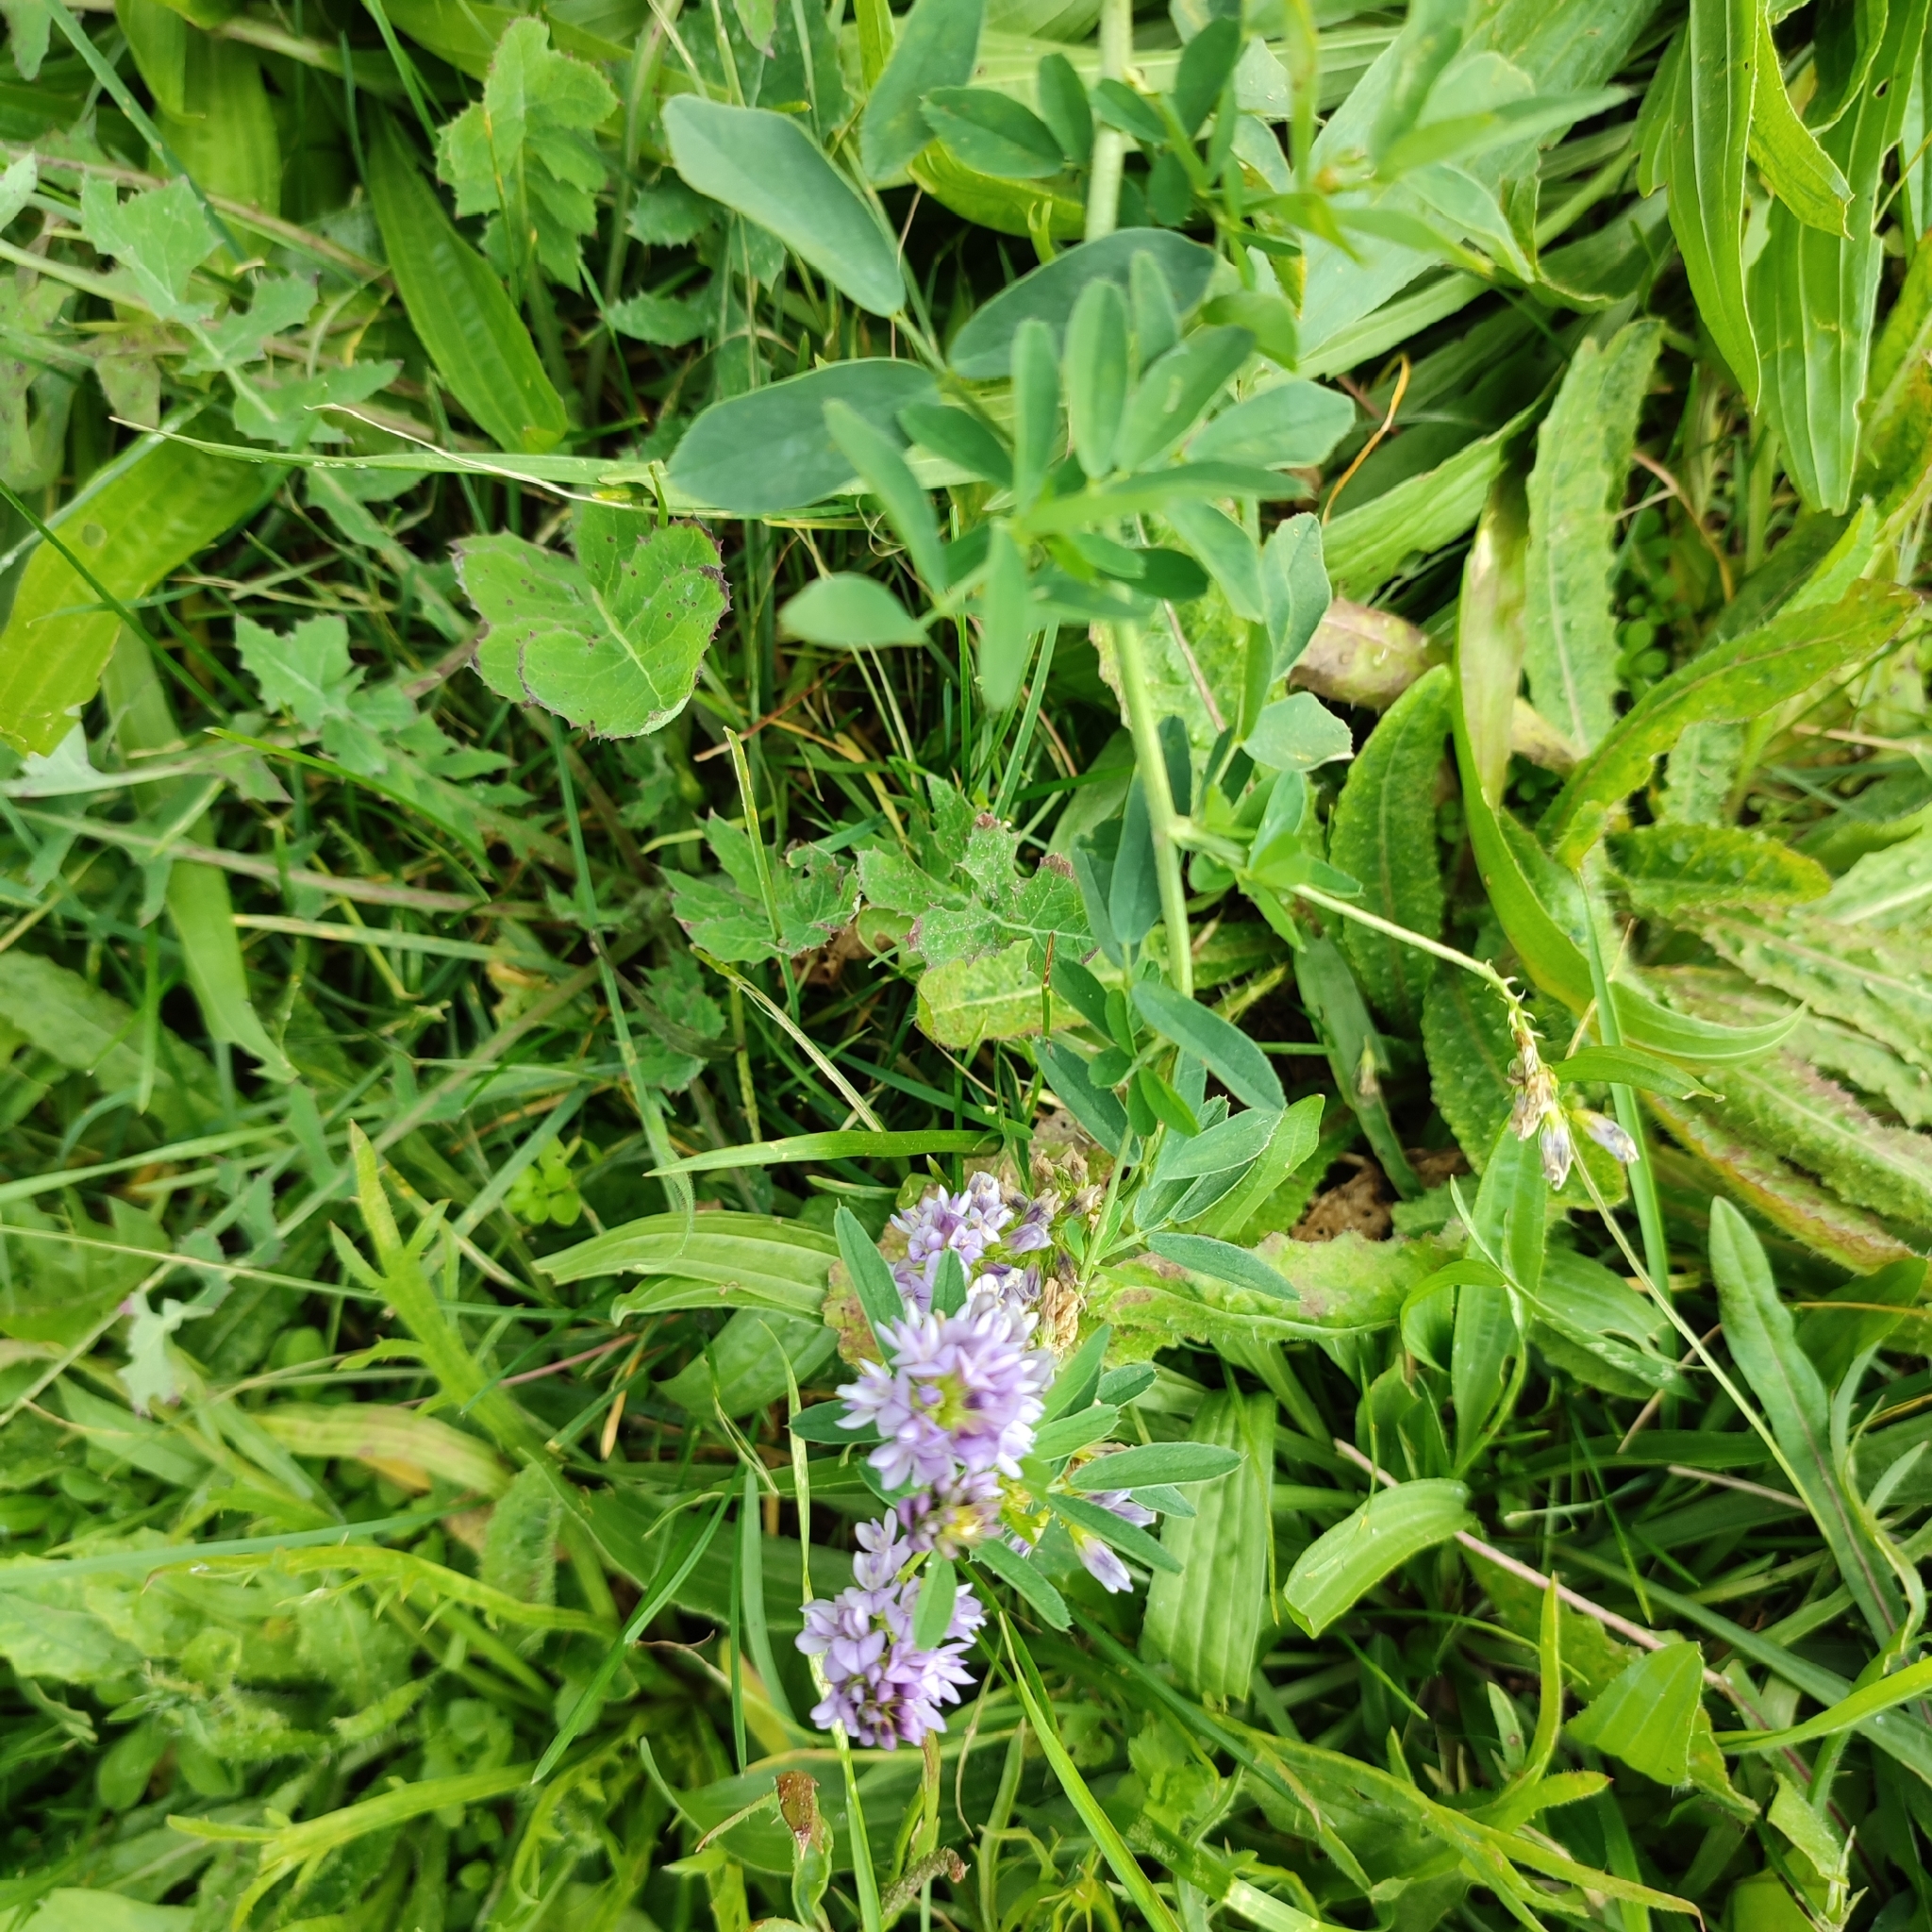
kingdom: Plantae
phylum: Tracheophyta
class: Magnoliopsida
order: Fabales
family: Fabaceae
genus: Medicago
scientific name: Medicago sativa
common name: Alfalfa
